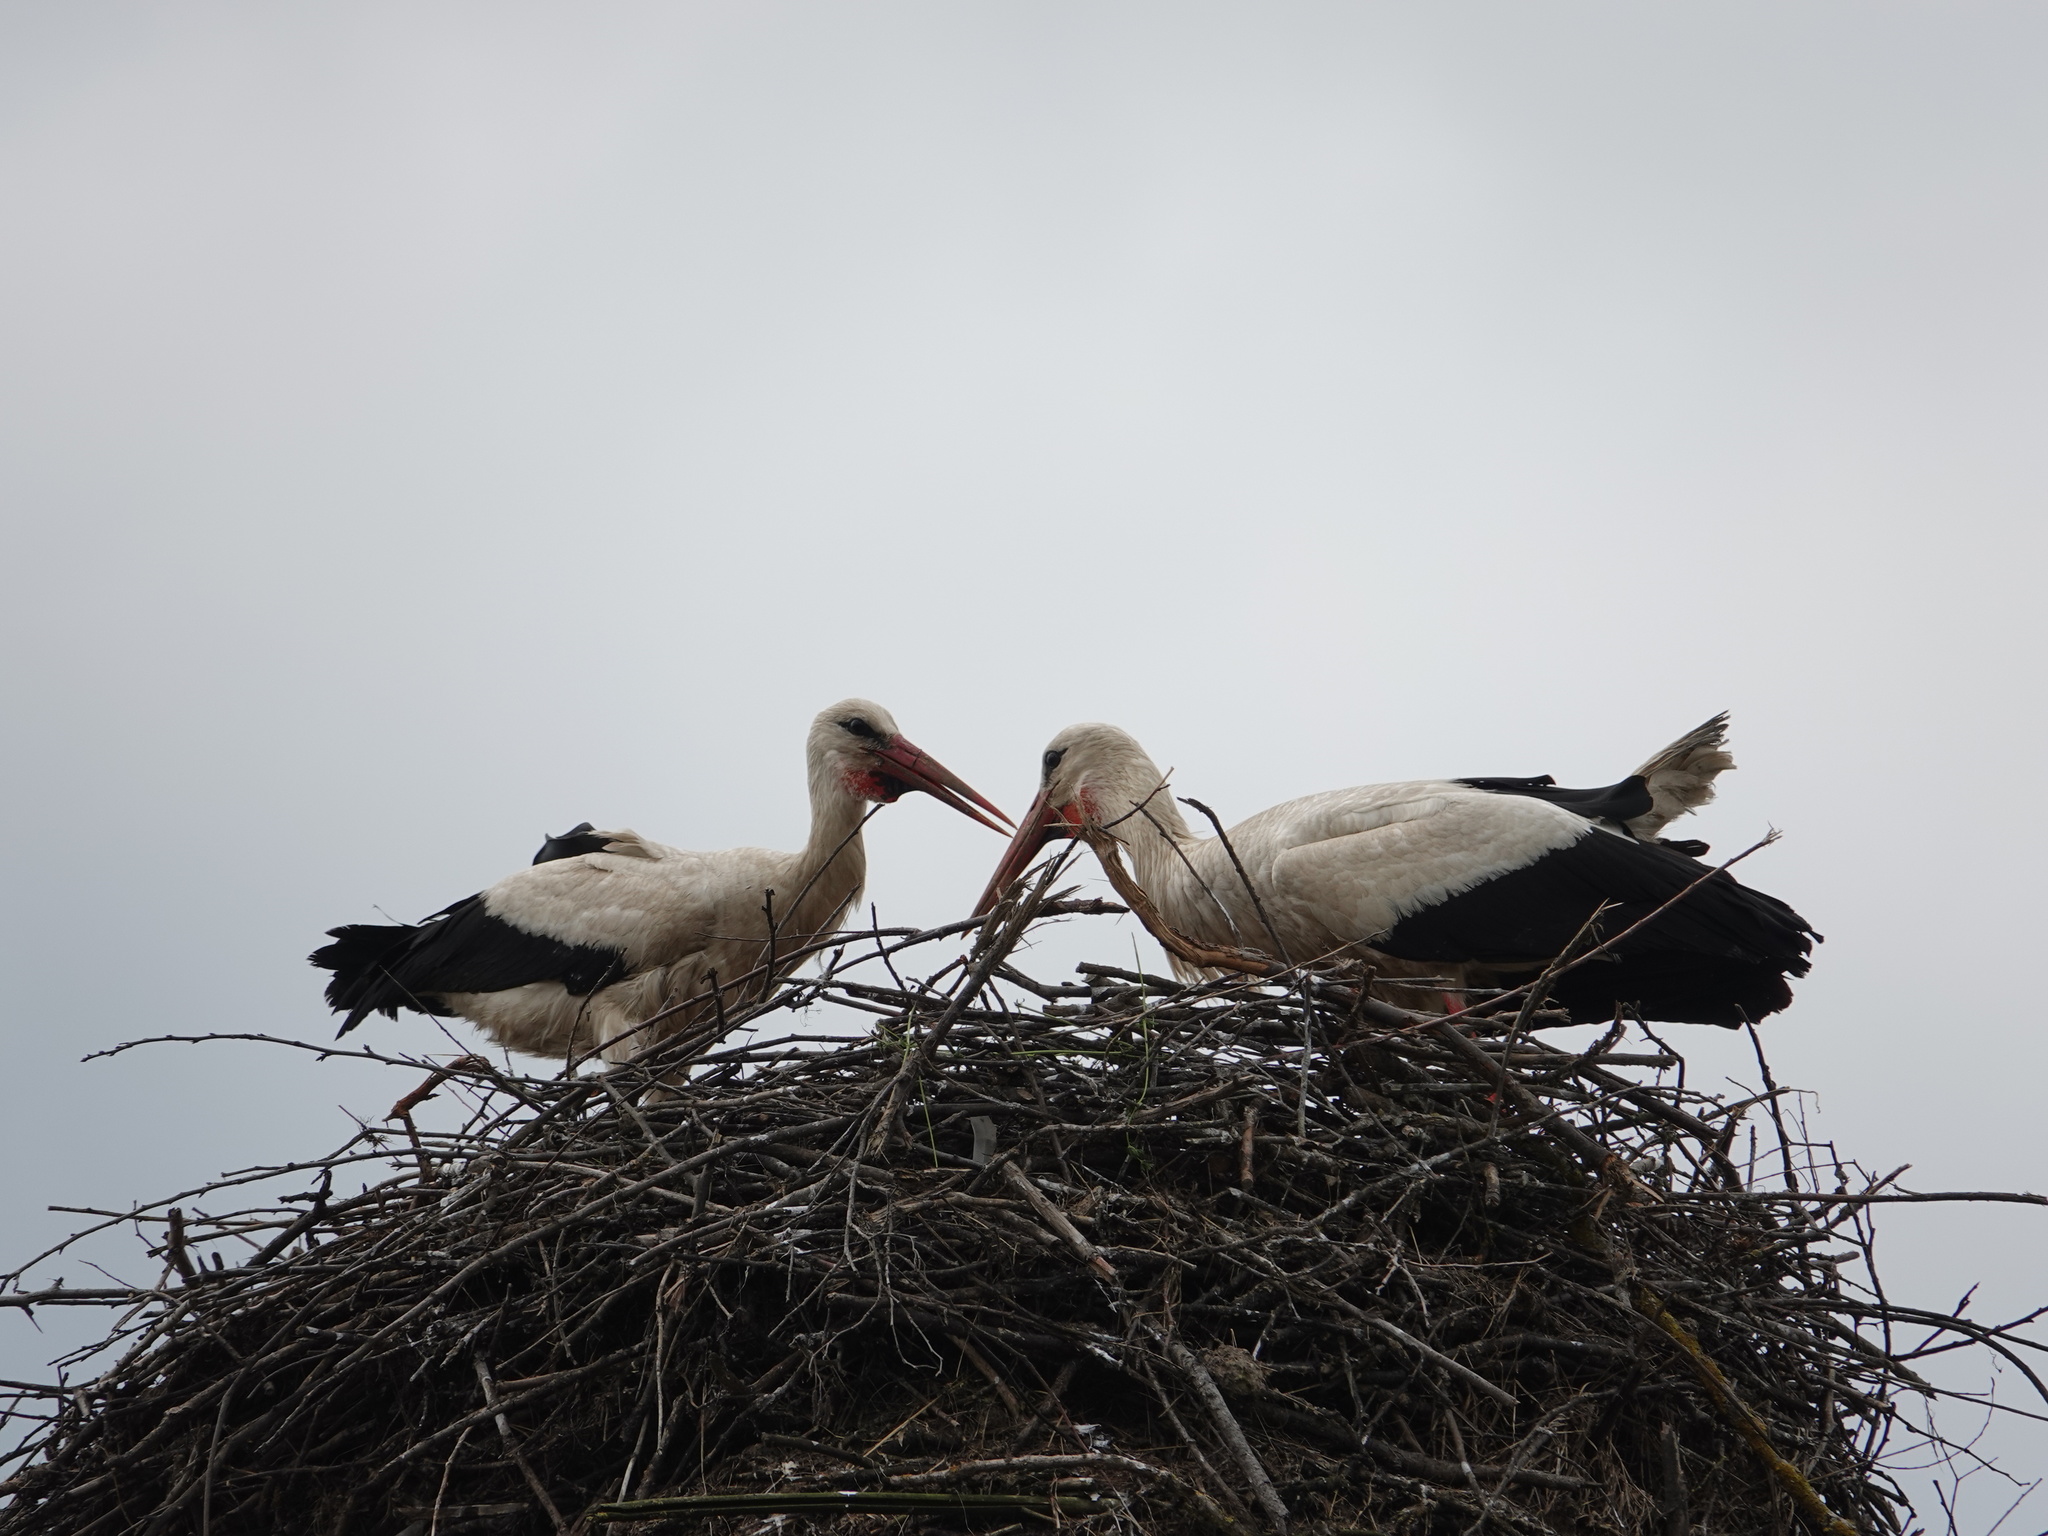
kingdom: Animalia
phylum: Chordata
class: Aves
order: Ciconiiformes
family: Ciconiidae
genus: Ciconia
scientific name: Ciconia ciconia
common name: White stork
